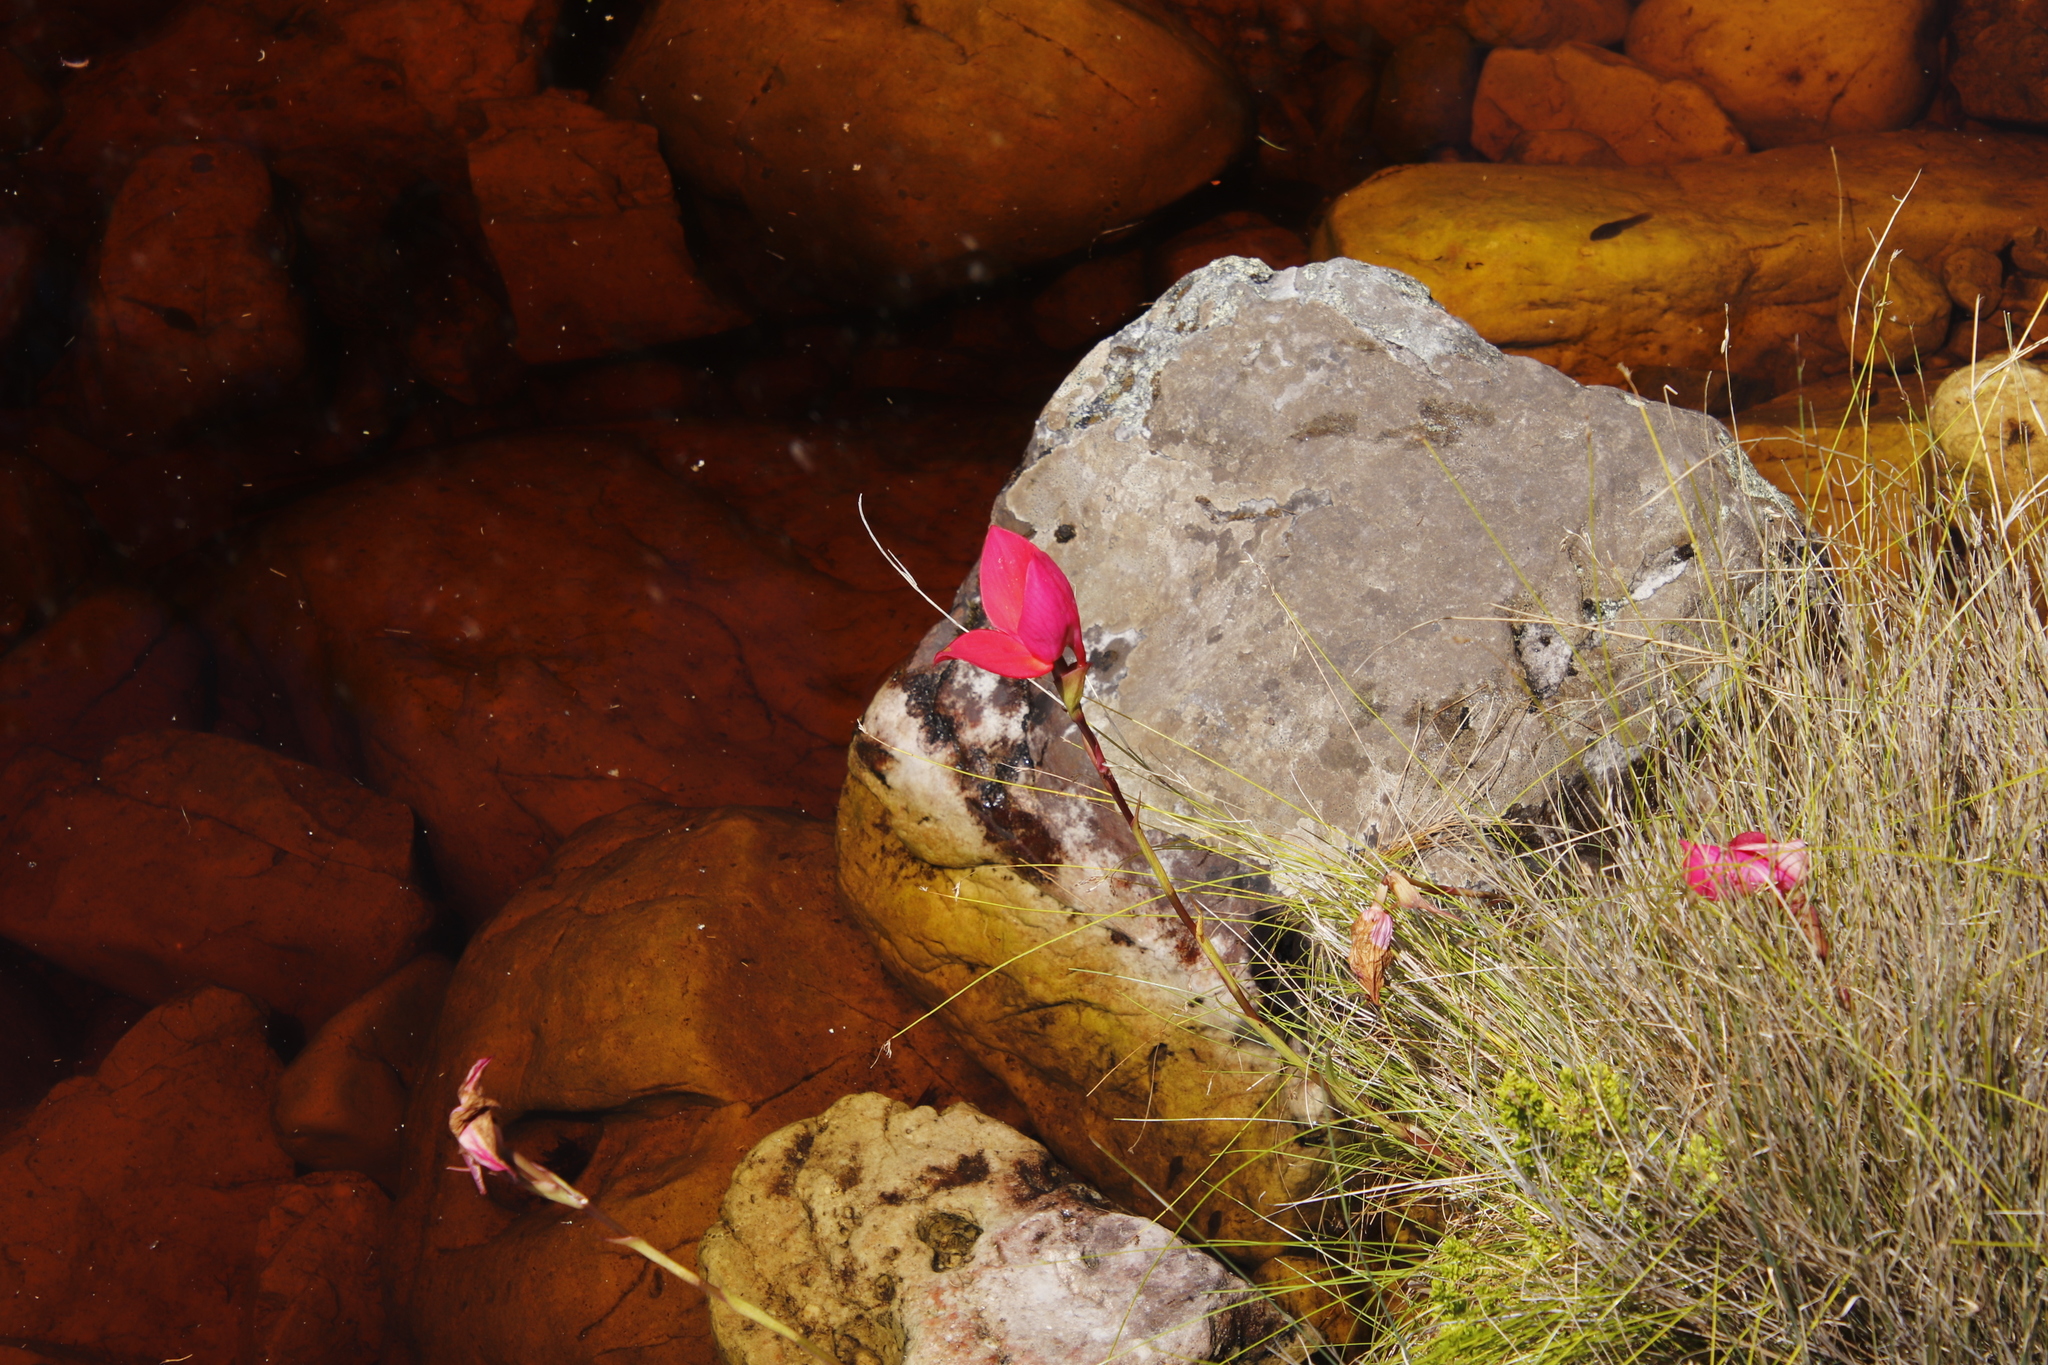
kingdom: Plantae
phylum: Tracheophyta
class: Liliopsida
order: Asparagales
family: Orchidaceae
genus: Disa
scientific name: Disa uniflora
